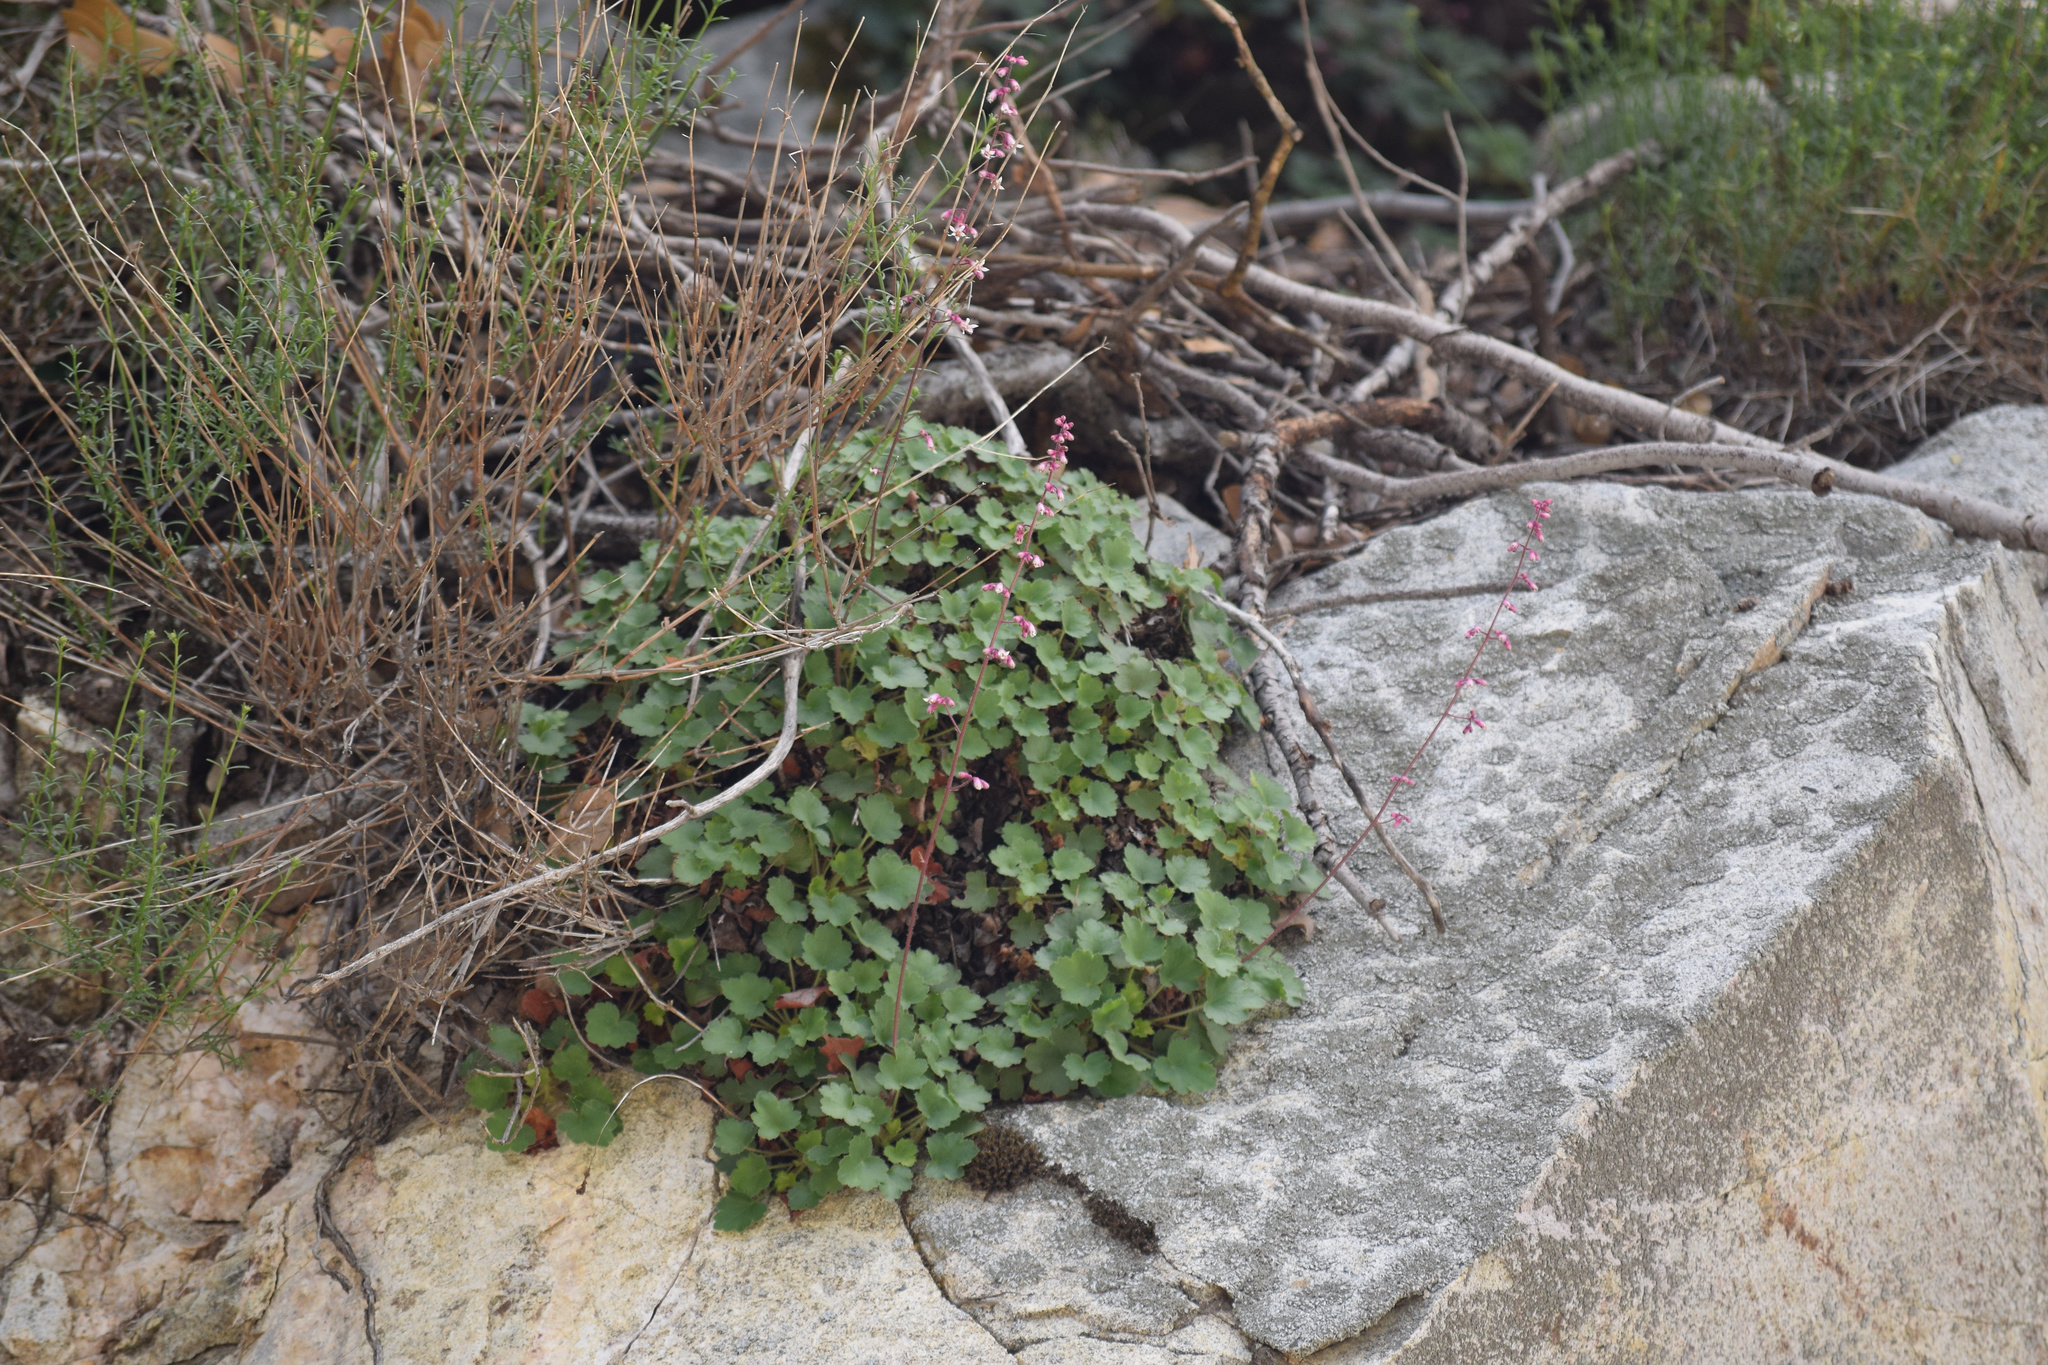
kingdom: Plantae
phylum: Tracheophyta
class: Magnoliopsida
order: Saxifragales
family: Saxifragaceae
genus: Heuchera
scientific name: Heuchera elegans
